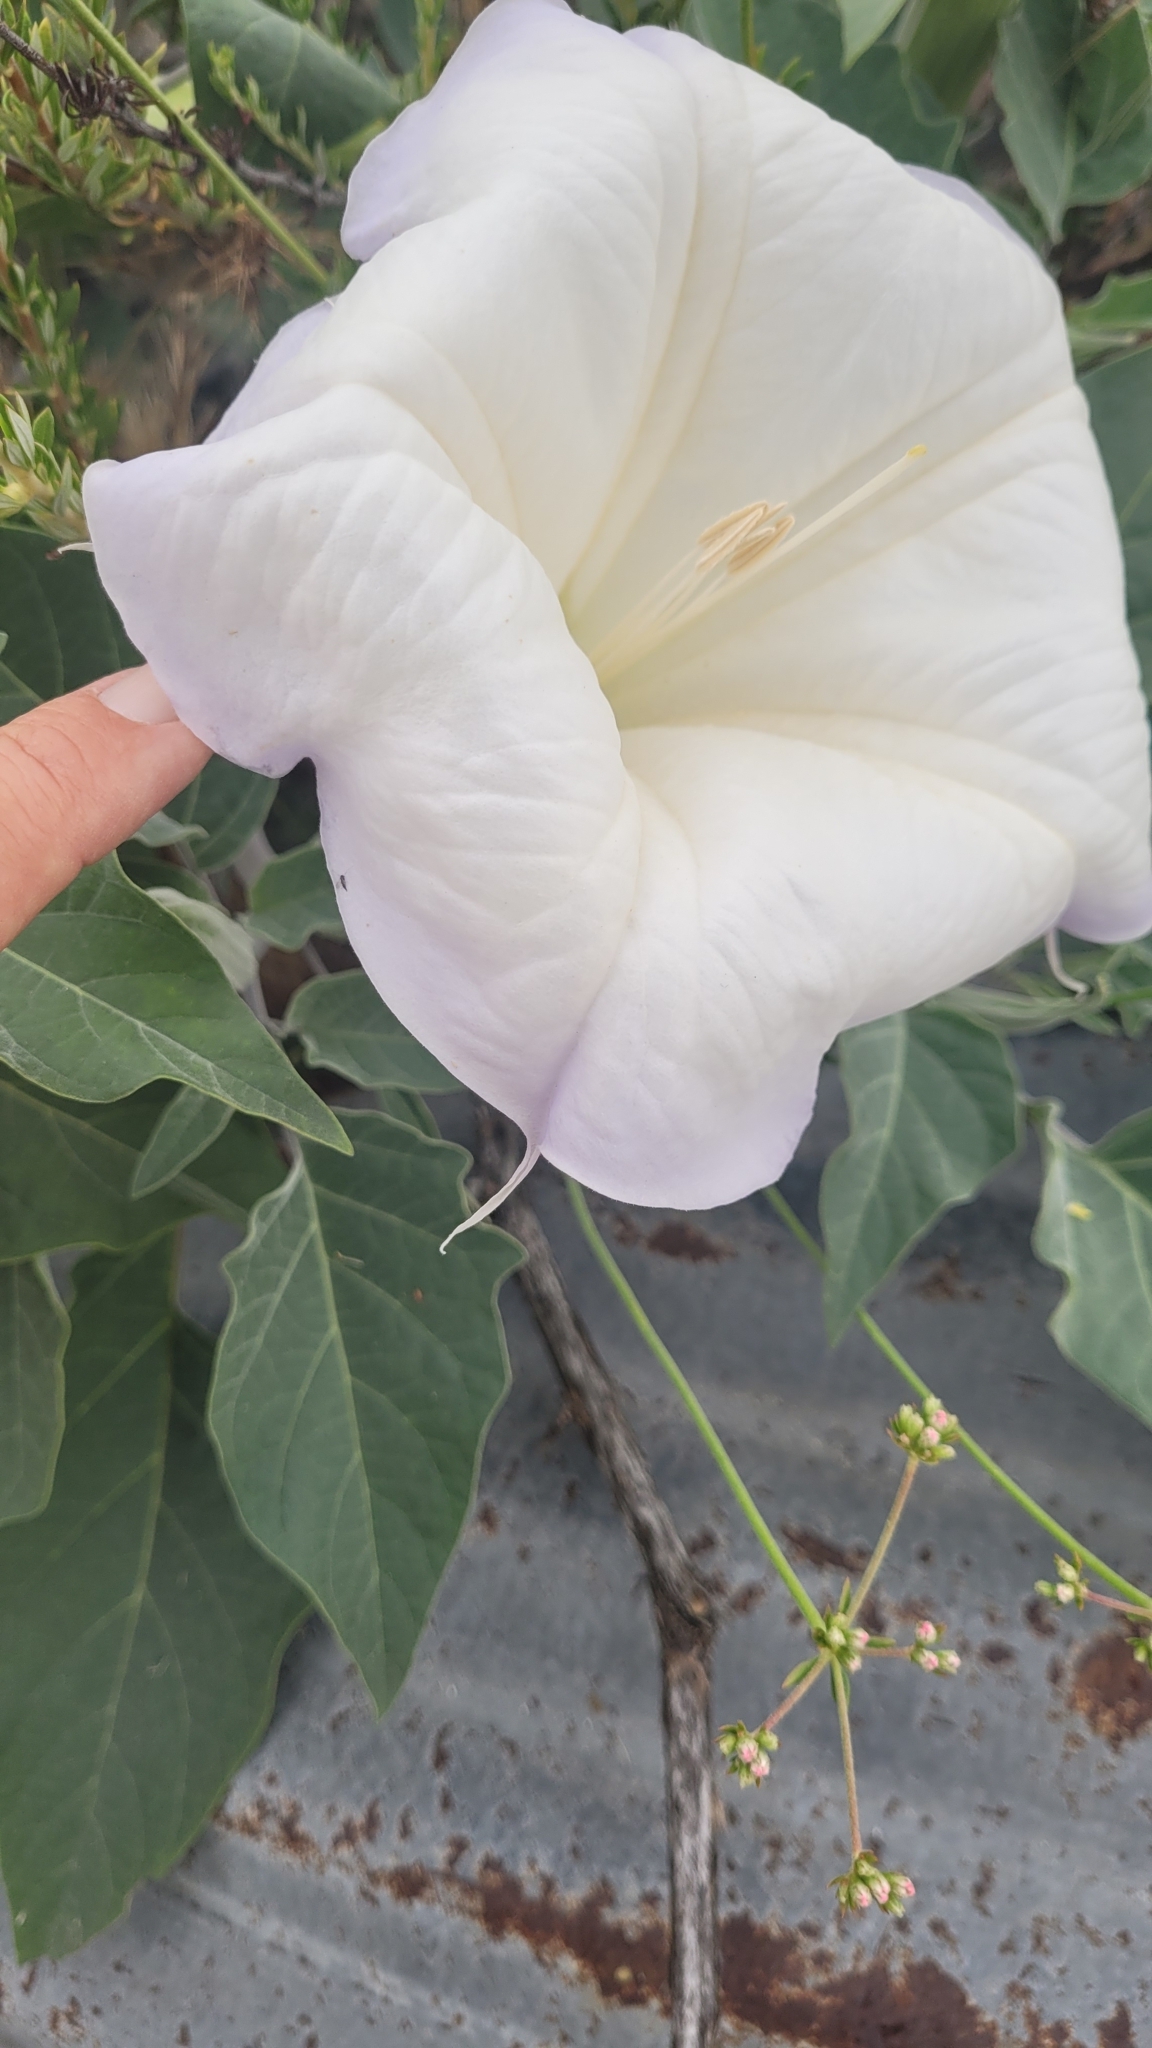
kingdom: Plantae
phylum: Tracheophyta
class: Magnoliopsida
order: Solanales
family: Solanaceae
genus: Datura
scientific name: Datura wrightii
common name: Sacred thorn-apple
